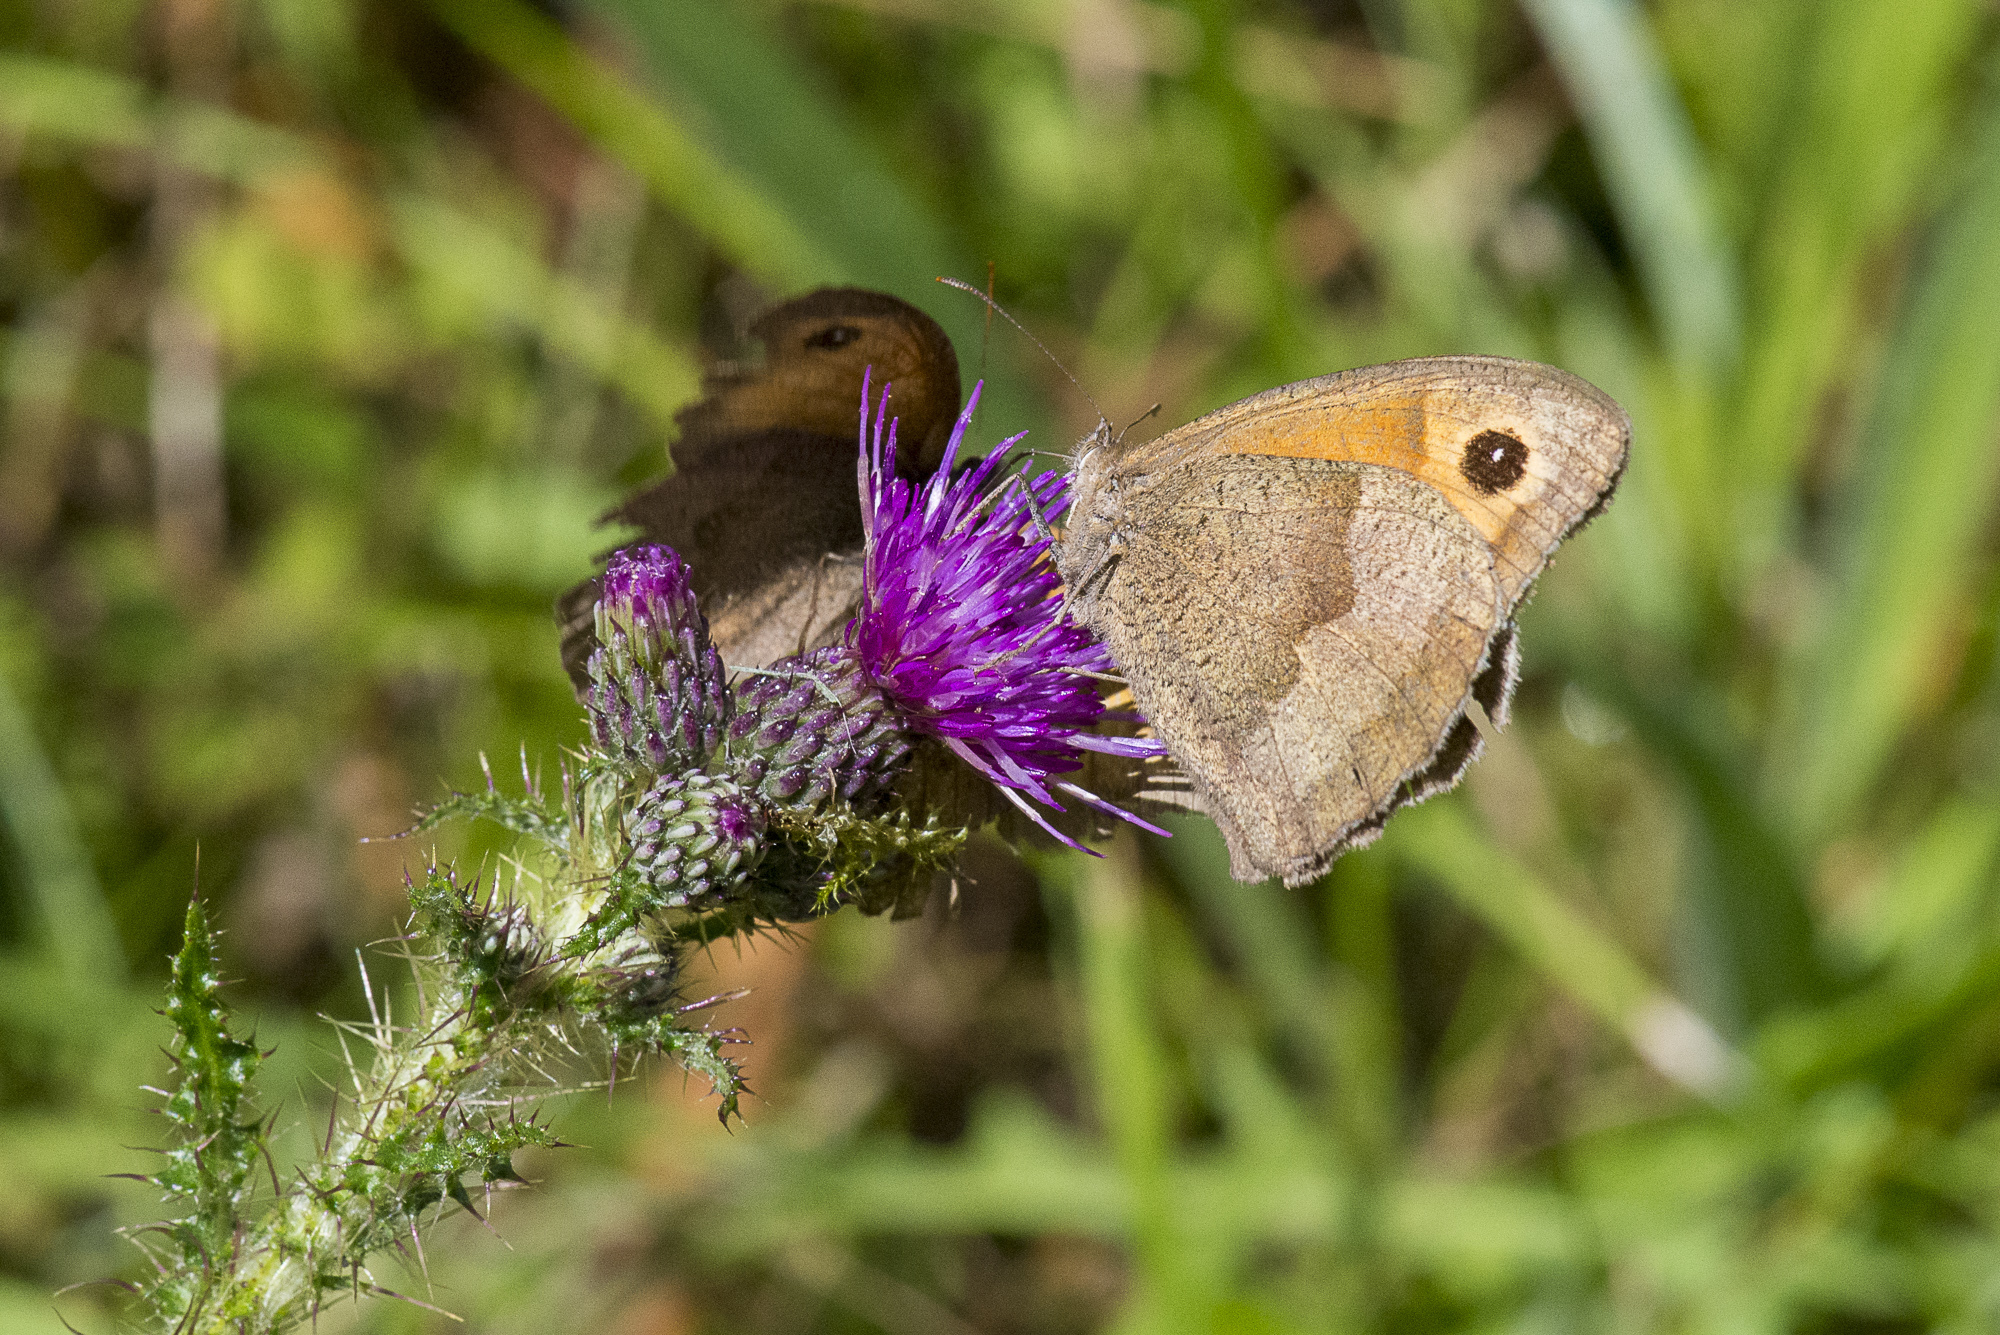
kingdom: Animalia
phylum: Arthropoda
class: Insecta
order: Lepidoptera
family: Nymphalidae
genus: Maniola
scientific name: Maniola jurtina
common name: Meadow brown
